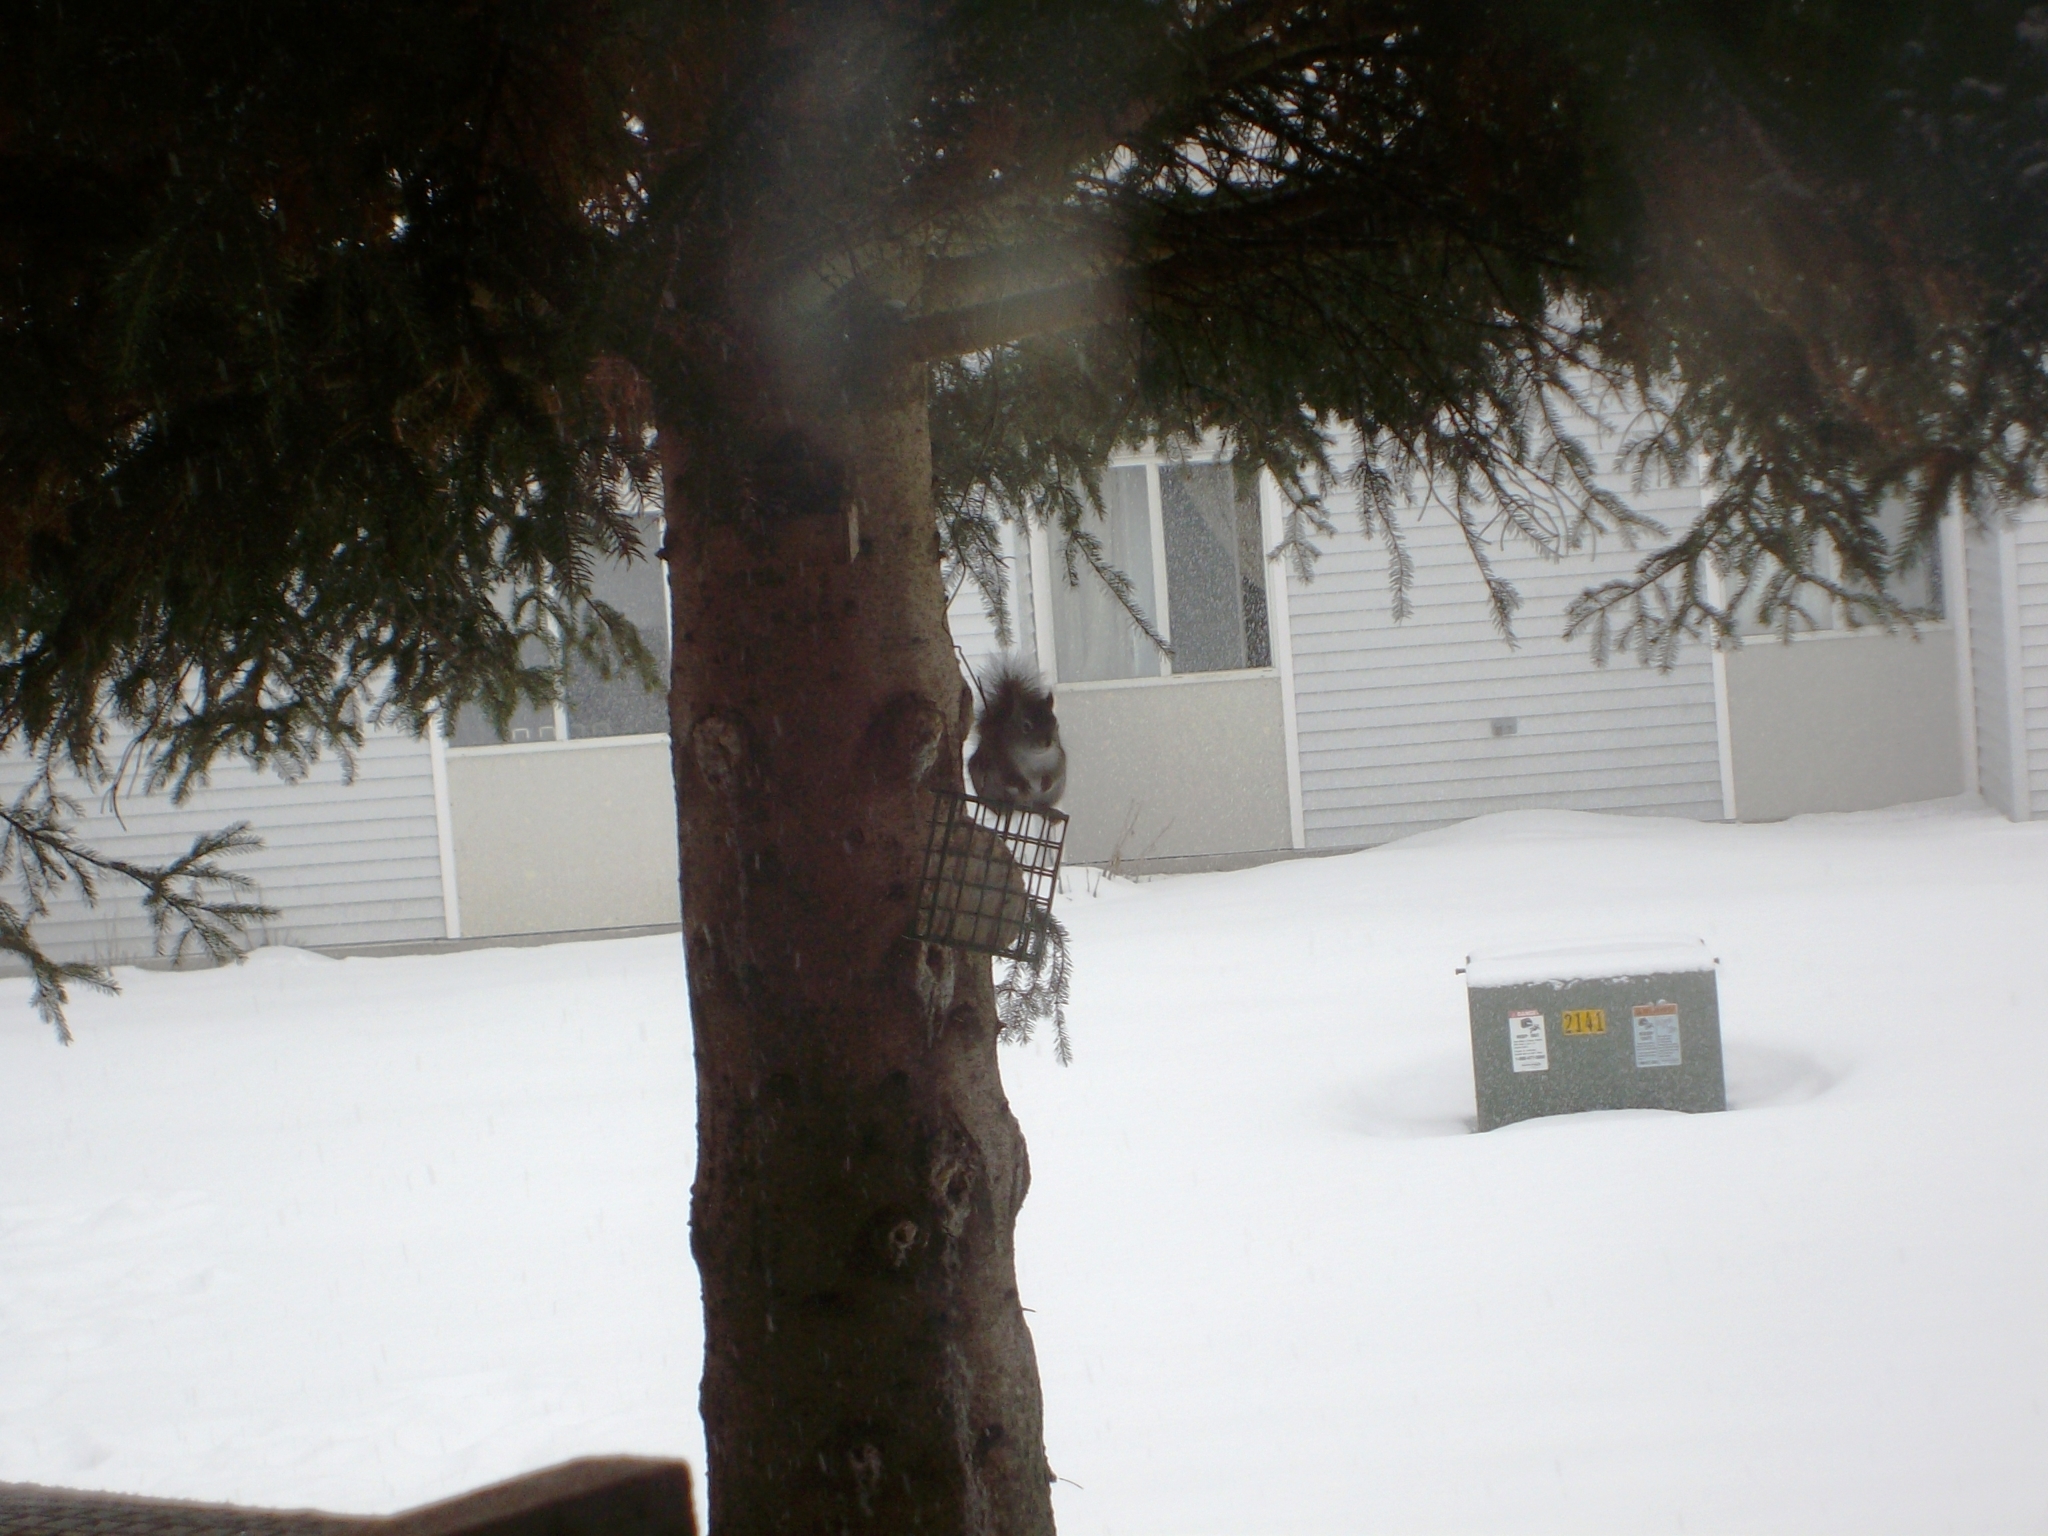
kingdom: Animalia
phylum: Chordata
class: Mammalia
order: Rodentia
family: Sciuridae
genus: Tamiasciurus
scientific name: Tamiasciurus hudsonicus
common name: Red squirrel
